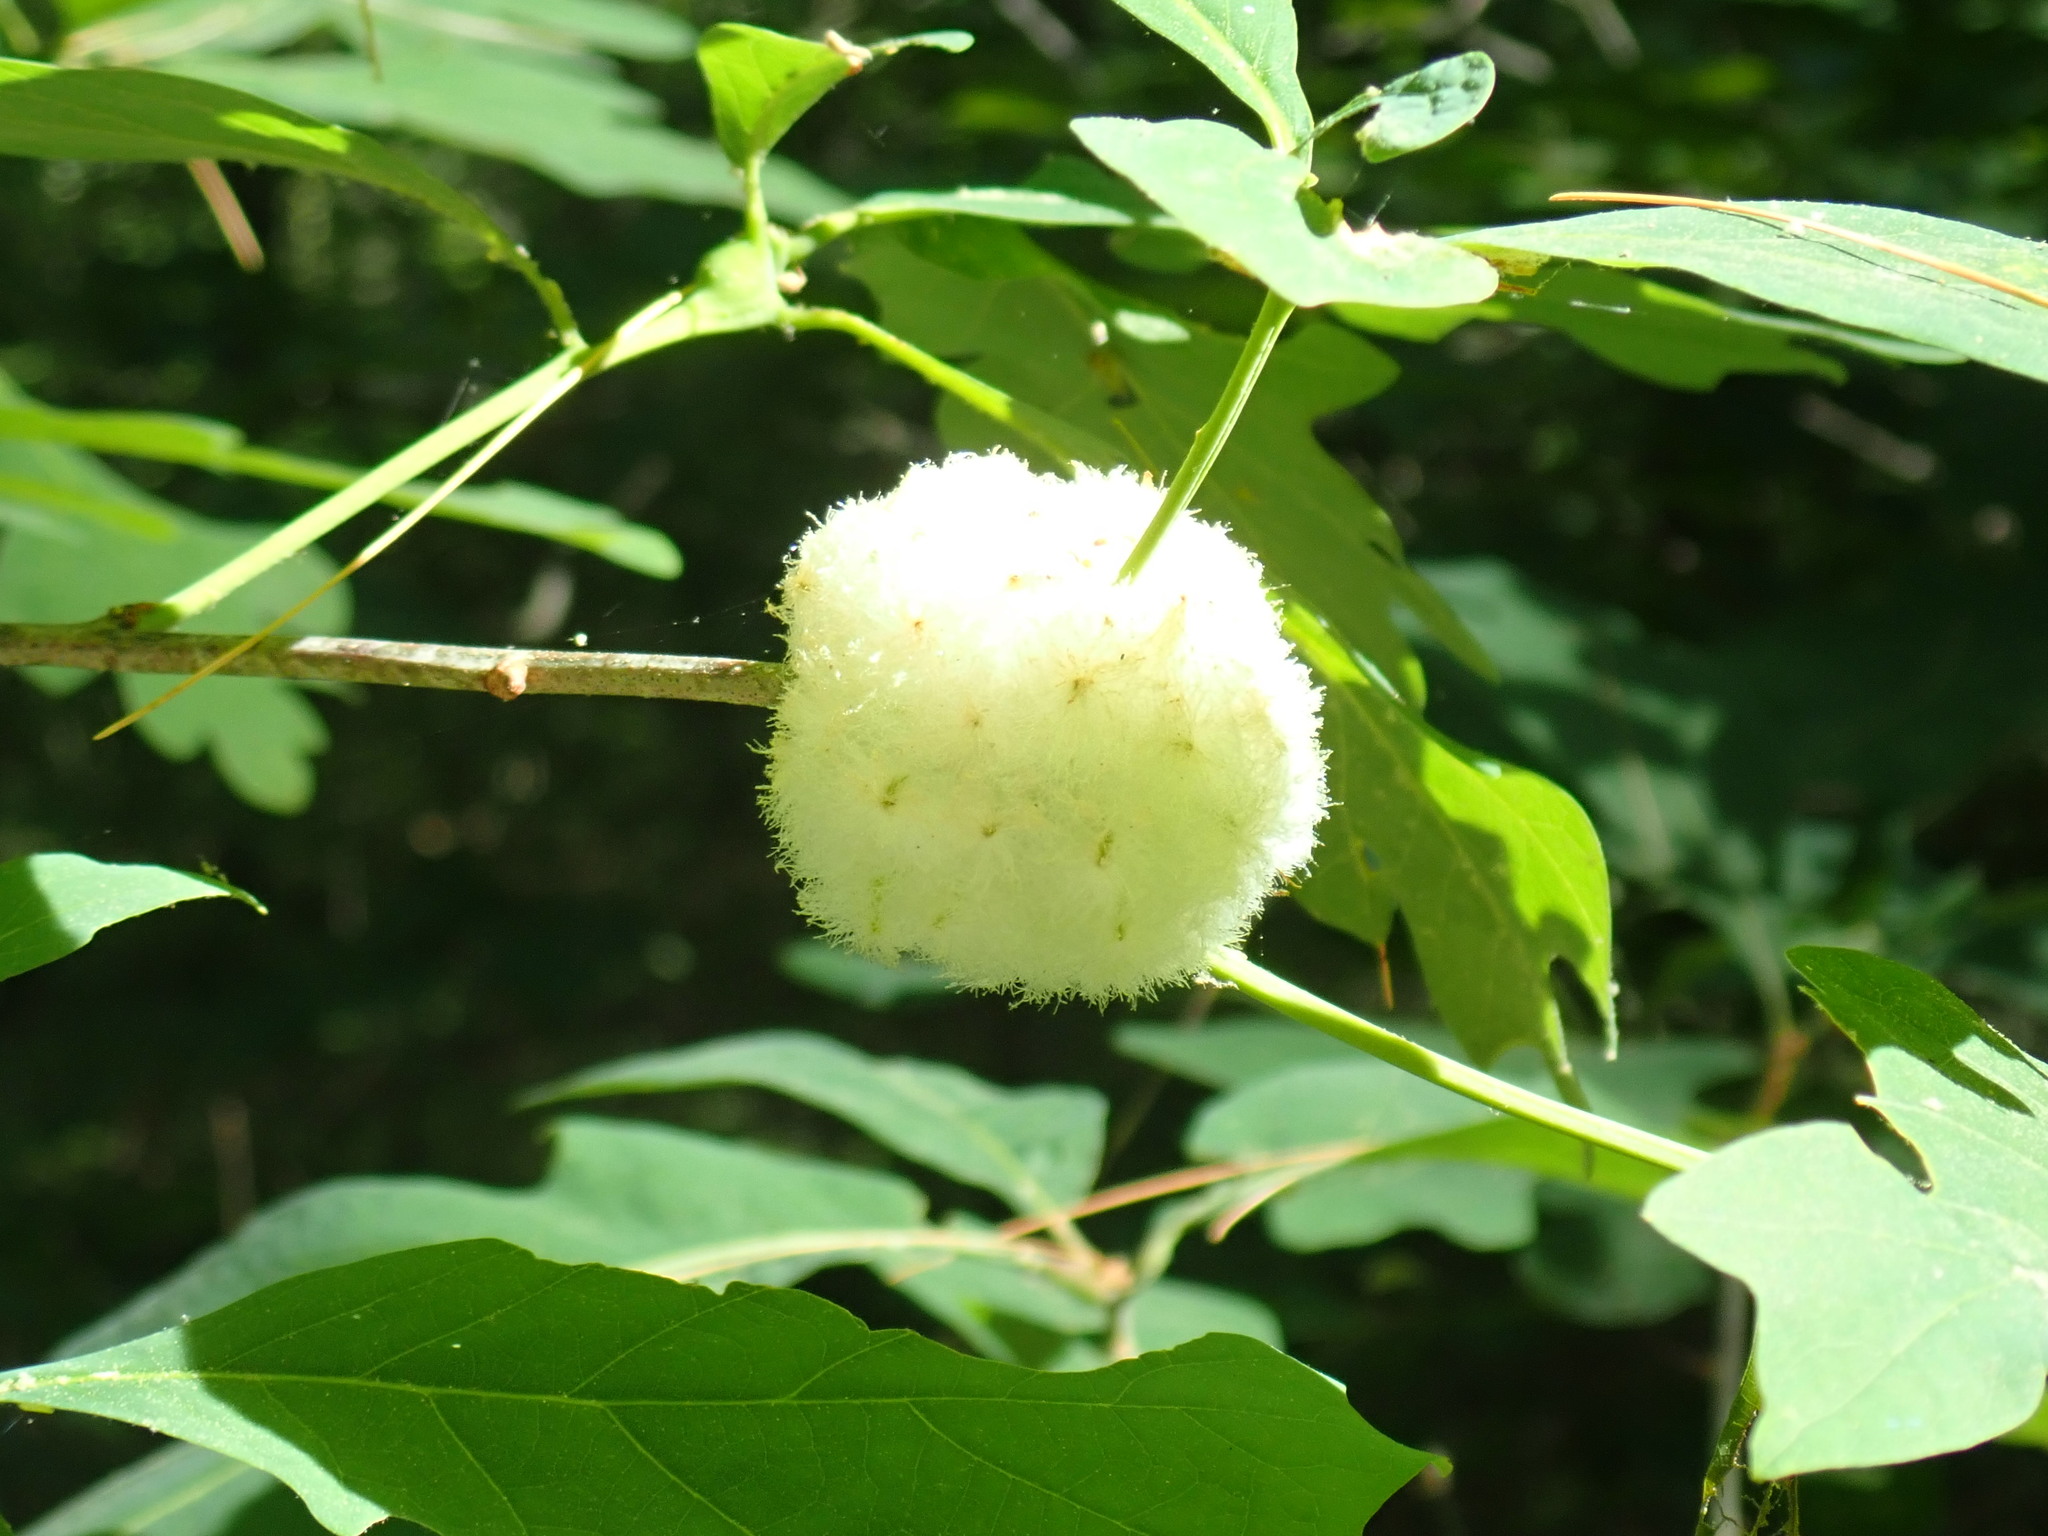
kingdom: Animalia
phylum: Arthropoda
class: Insecta
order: Hymenoptera
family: Cynipidae
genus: Callirhytis
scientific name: Callirhytis
